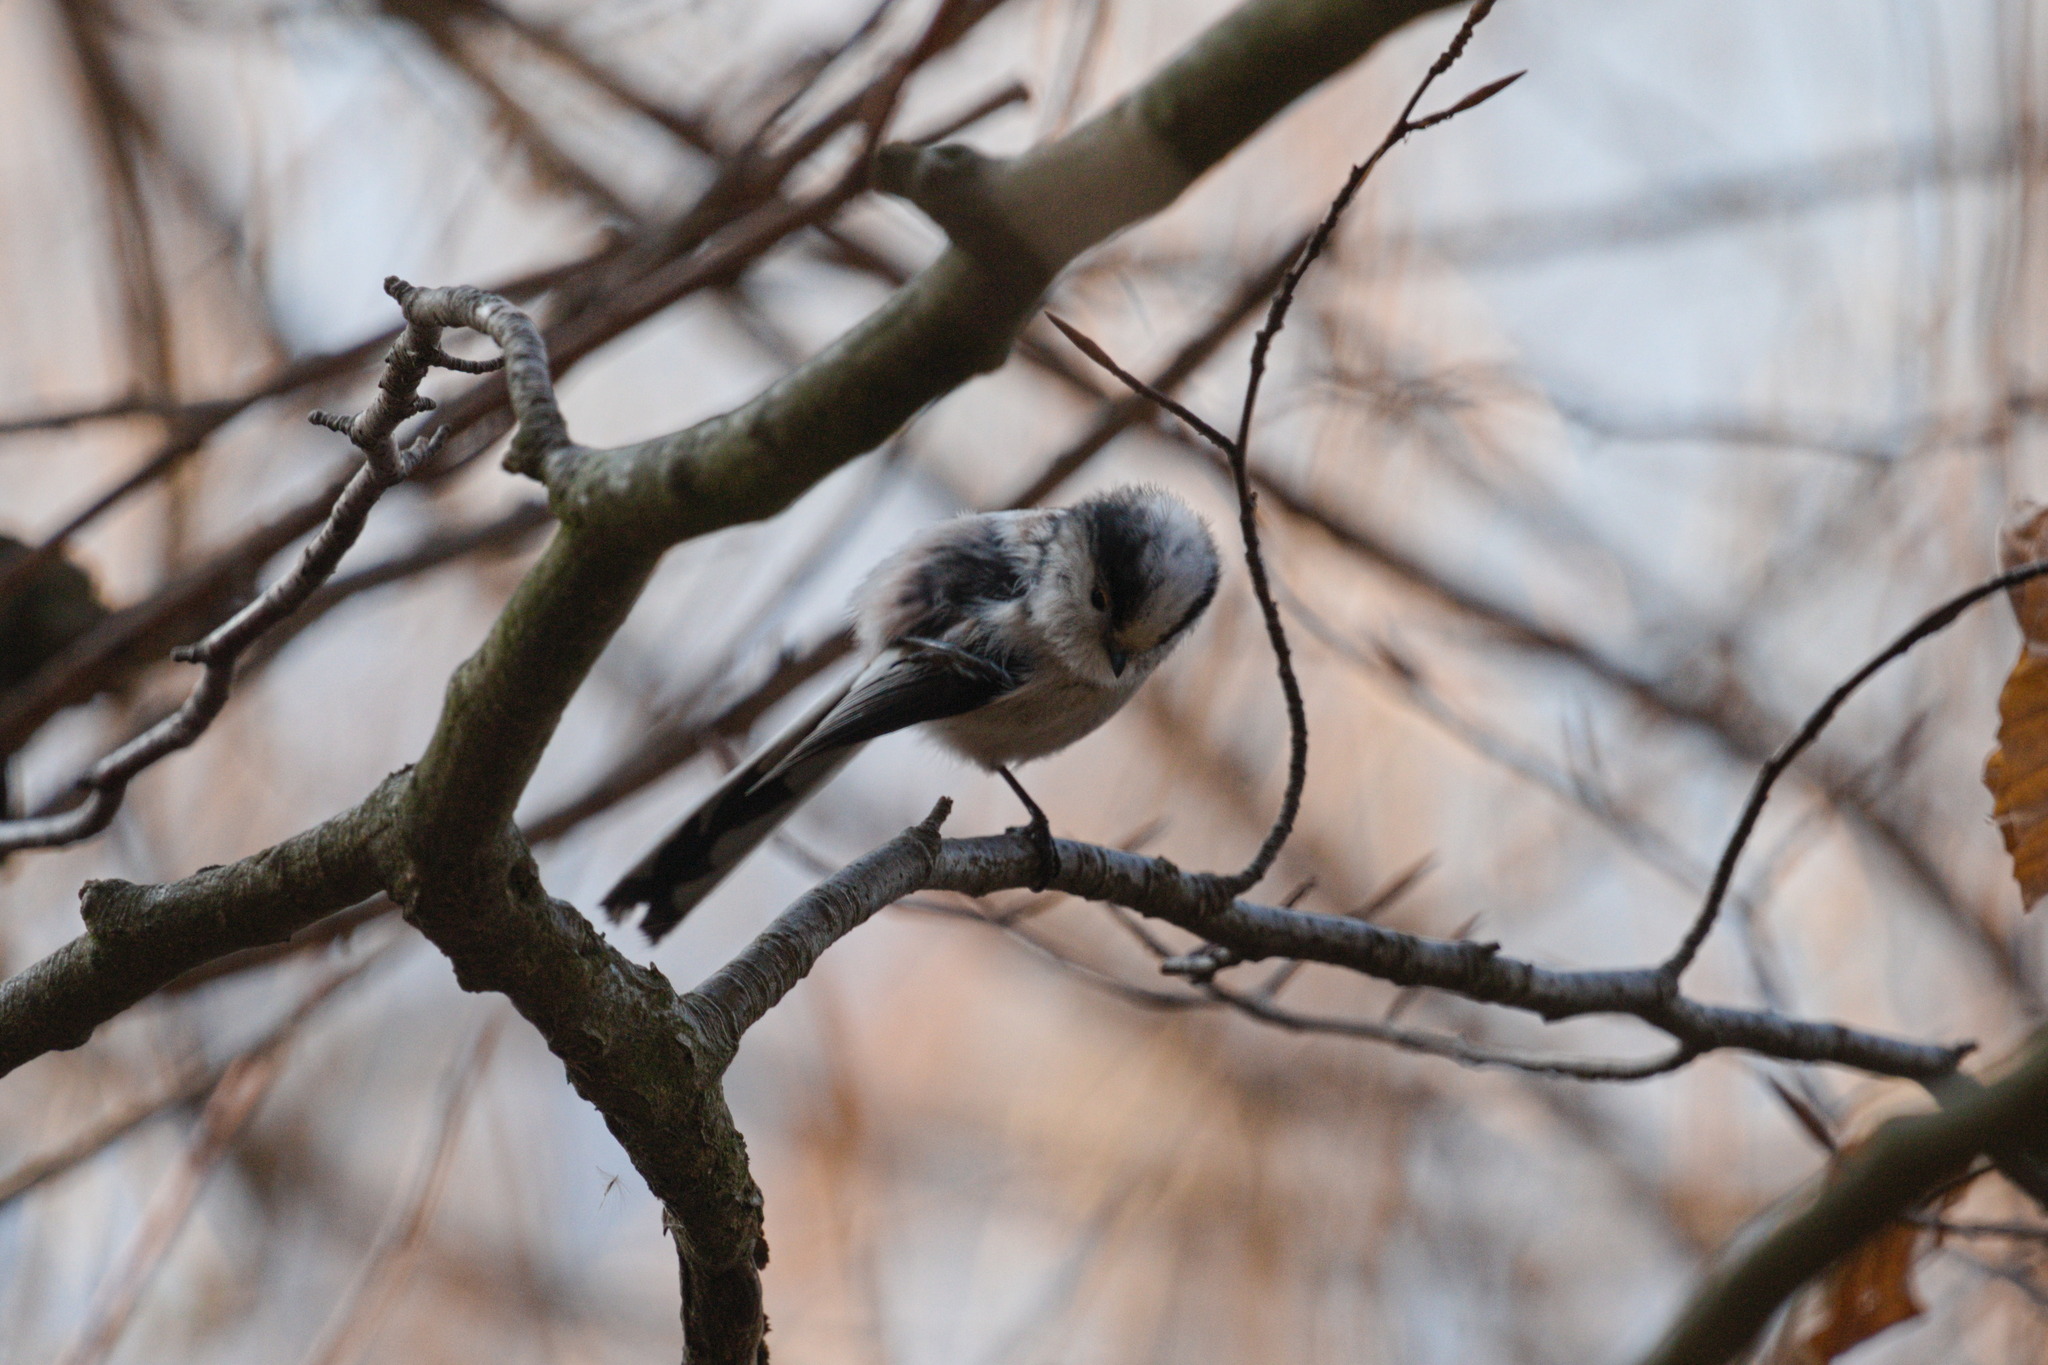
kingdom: Animalia
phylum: Chordata
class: Aves
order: Passeriformes
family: Aegithalidae
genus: Aegithalos
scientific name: Aegithalos caudatus
